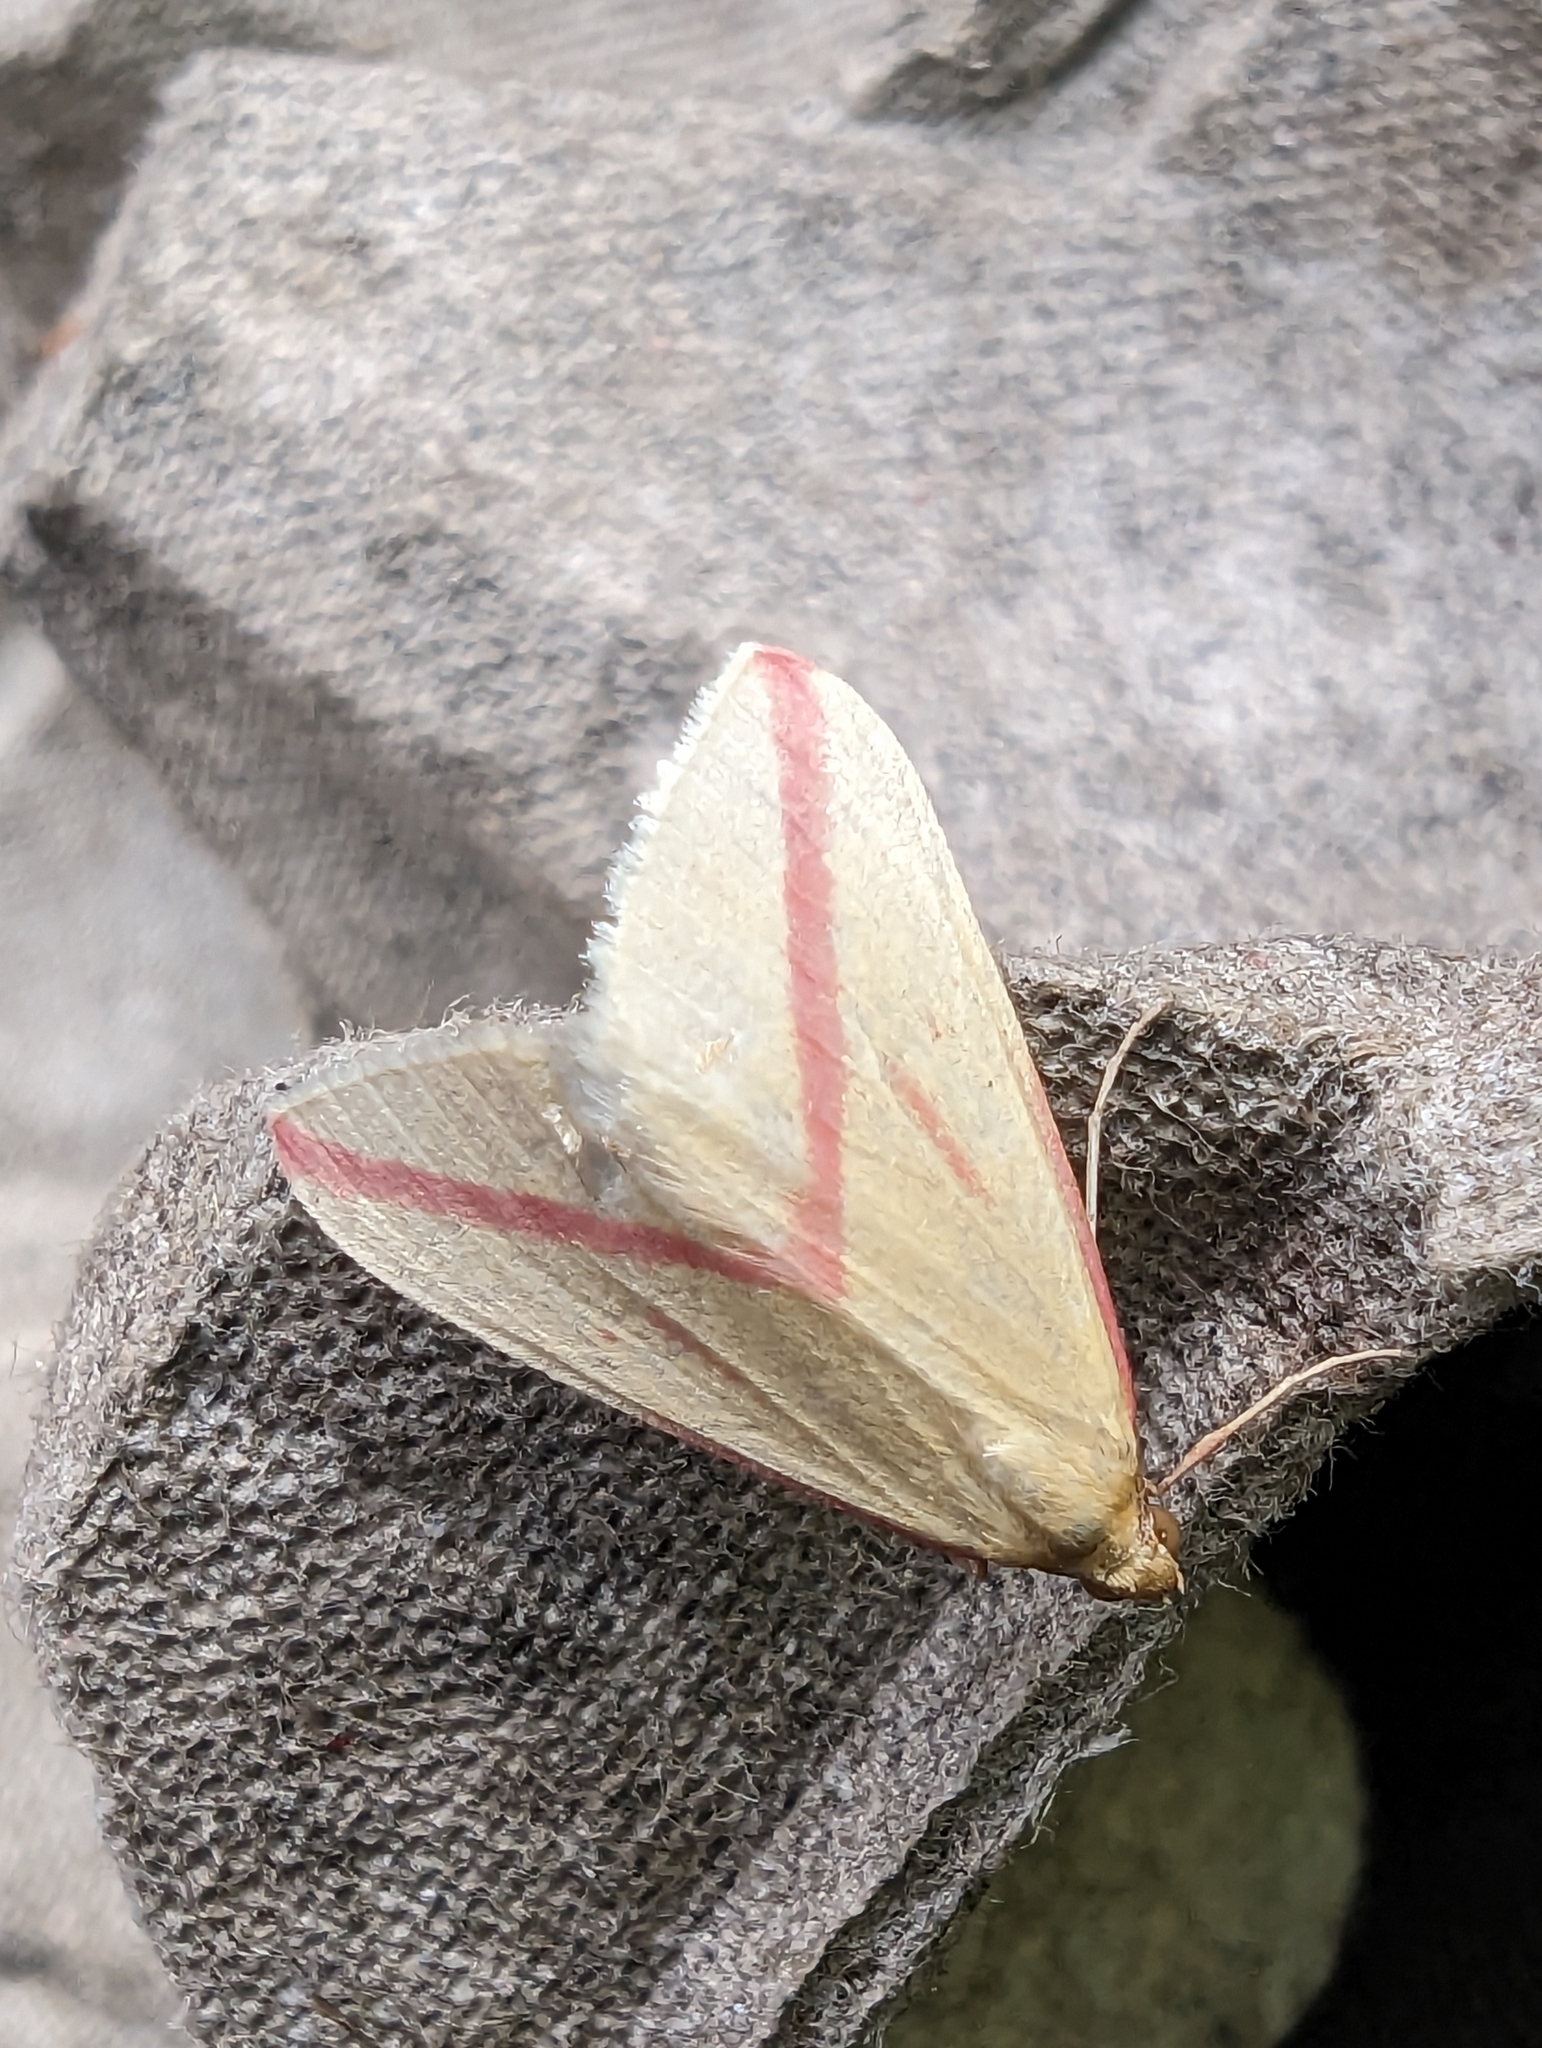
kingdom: Animalia
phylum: Arthropoda
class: Insecta
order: Lepidoptera
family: Geometridae
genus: Rhodometra
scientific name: Rhodometra sacraria
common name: Vestal
